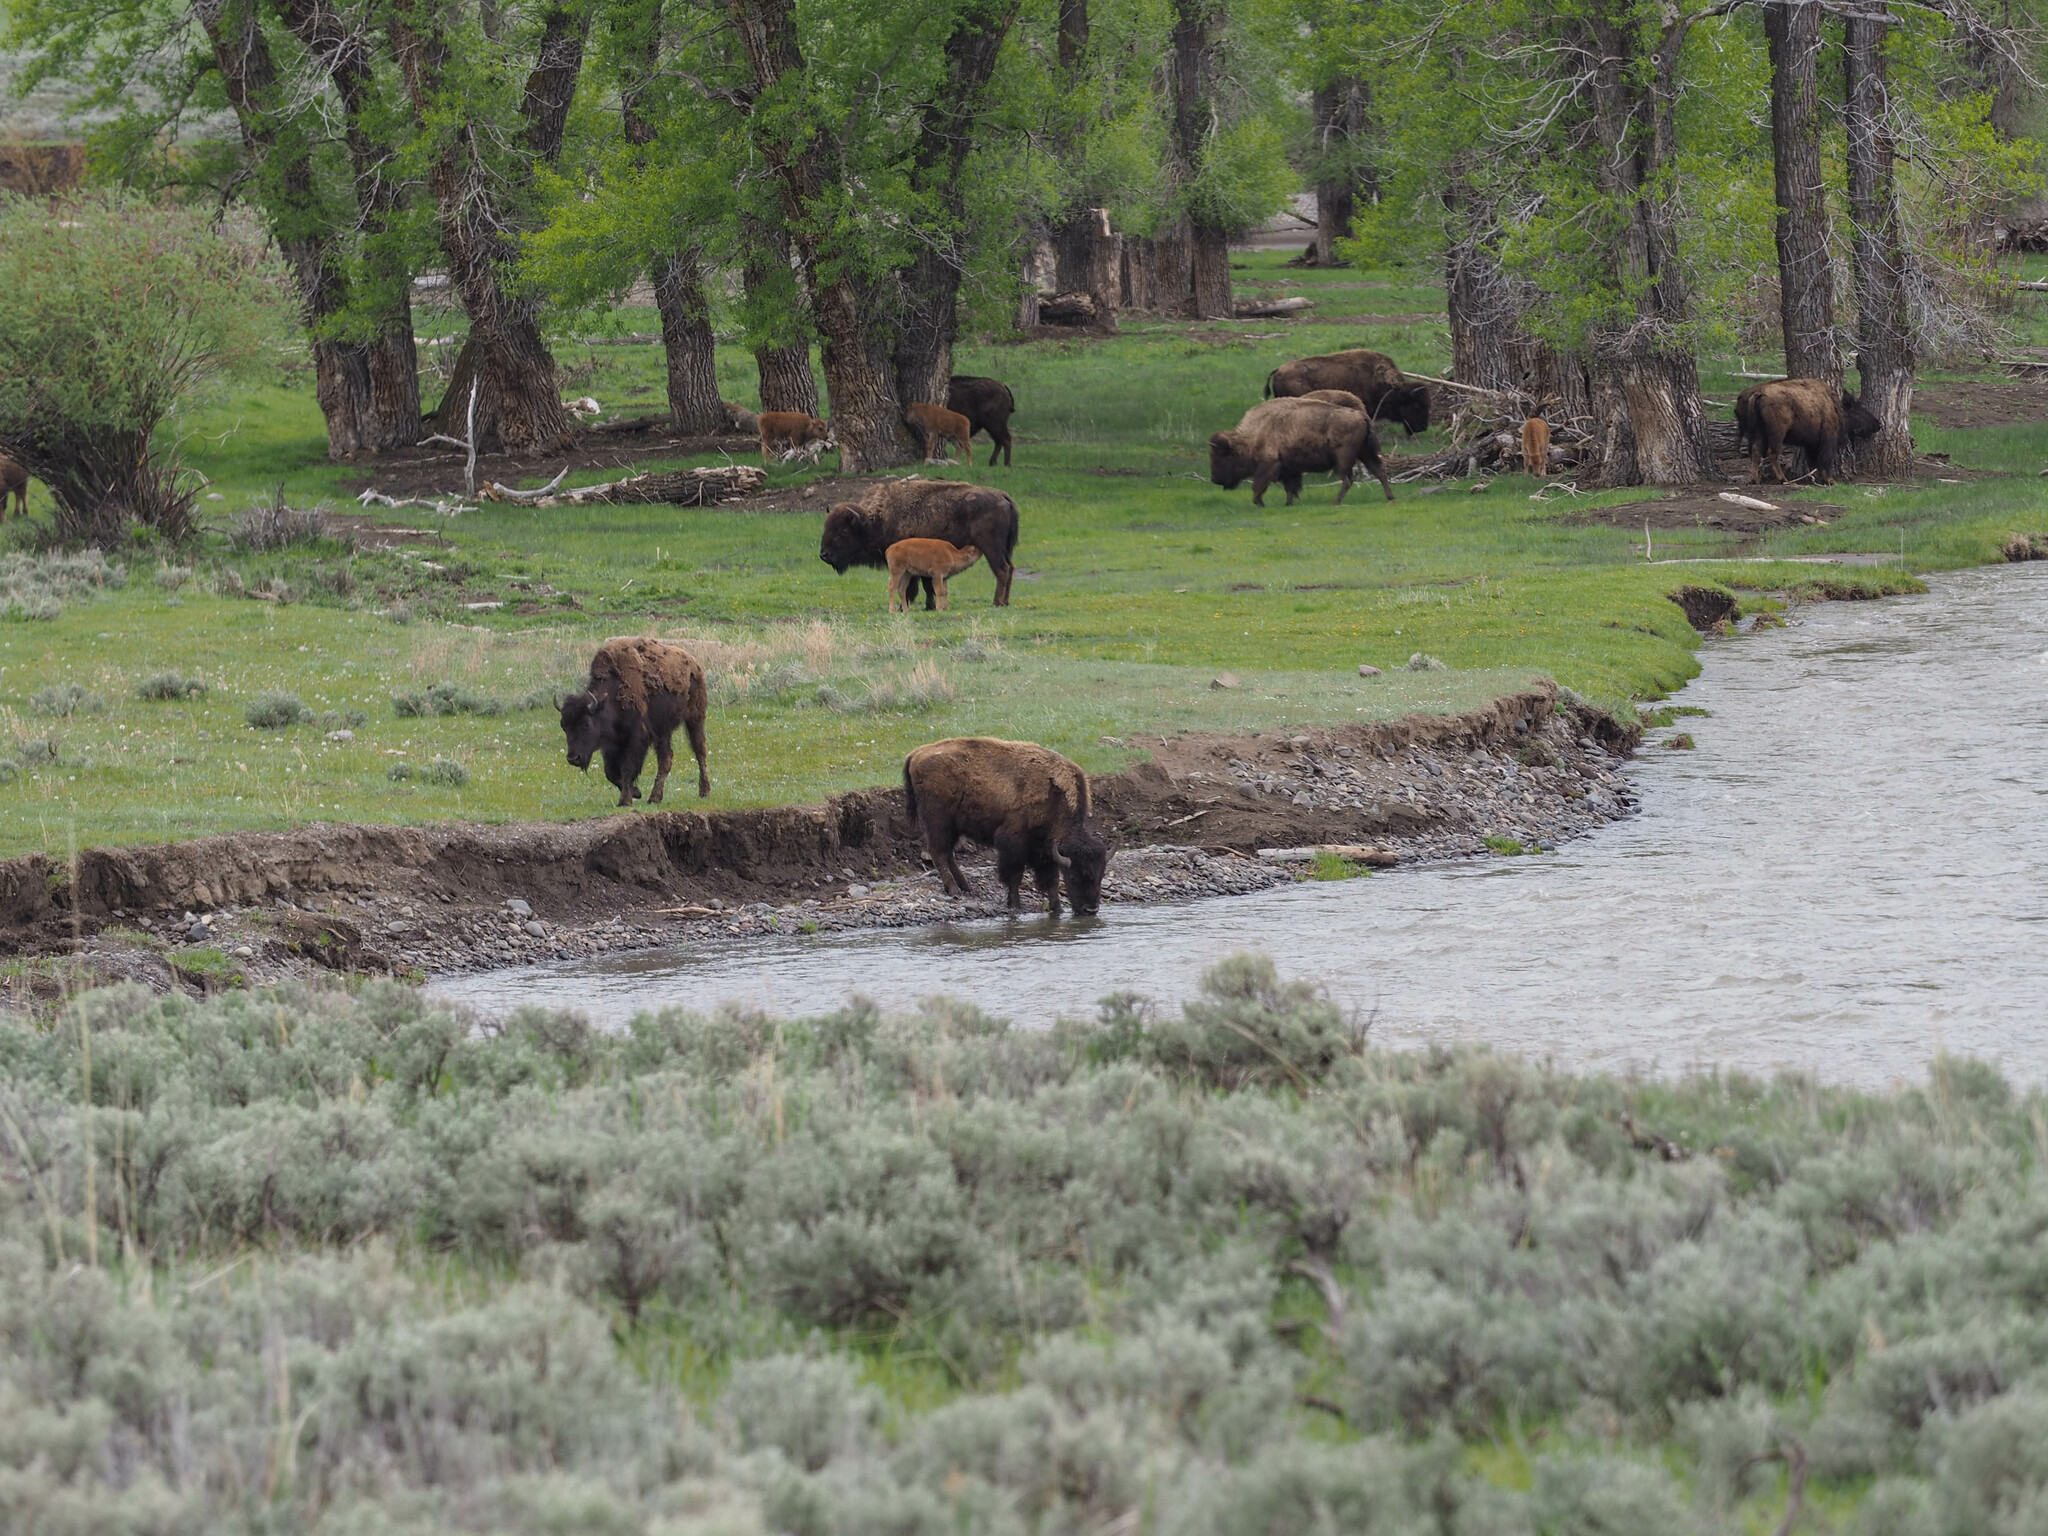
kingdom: Animalia
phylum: Chordata
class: Mammalia
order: Artiodactyla
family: Bovidae
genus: Bison
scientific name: Bison bison
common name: American bison
